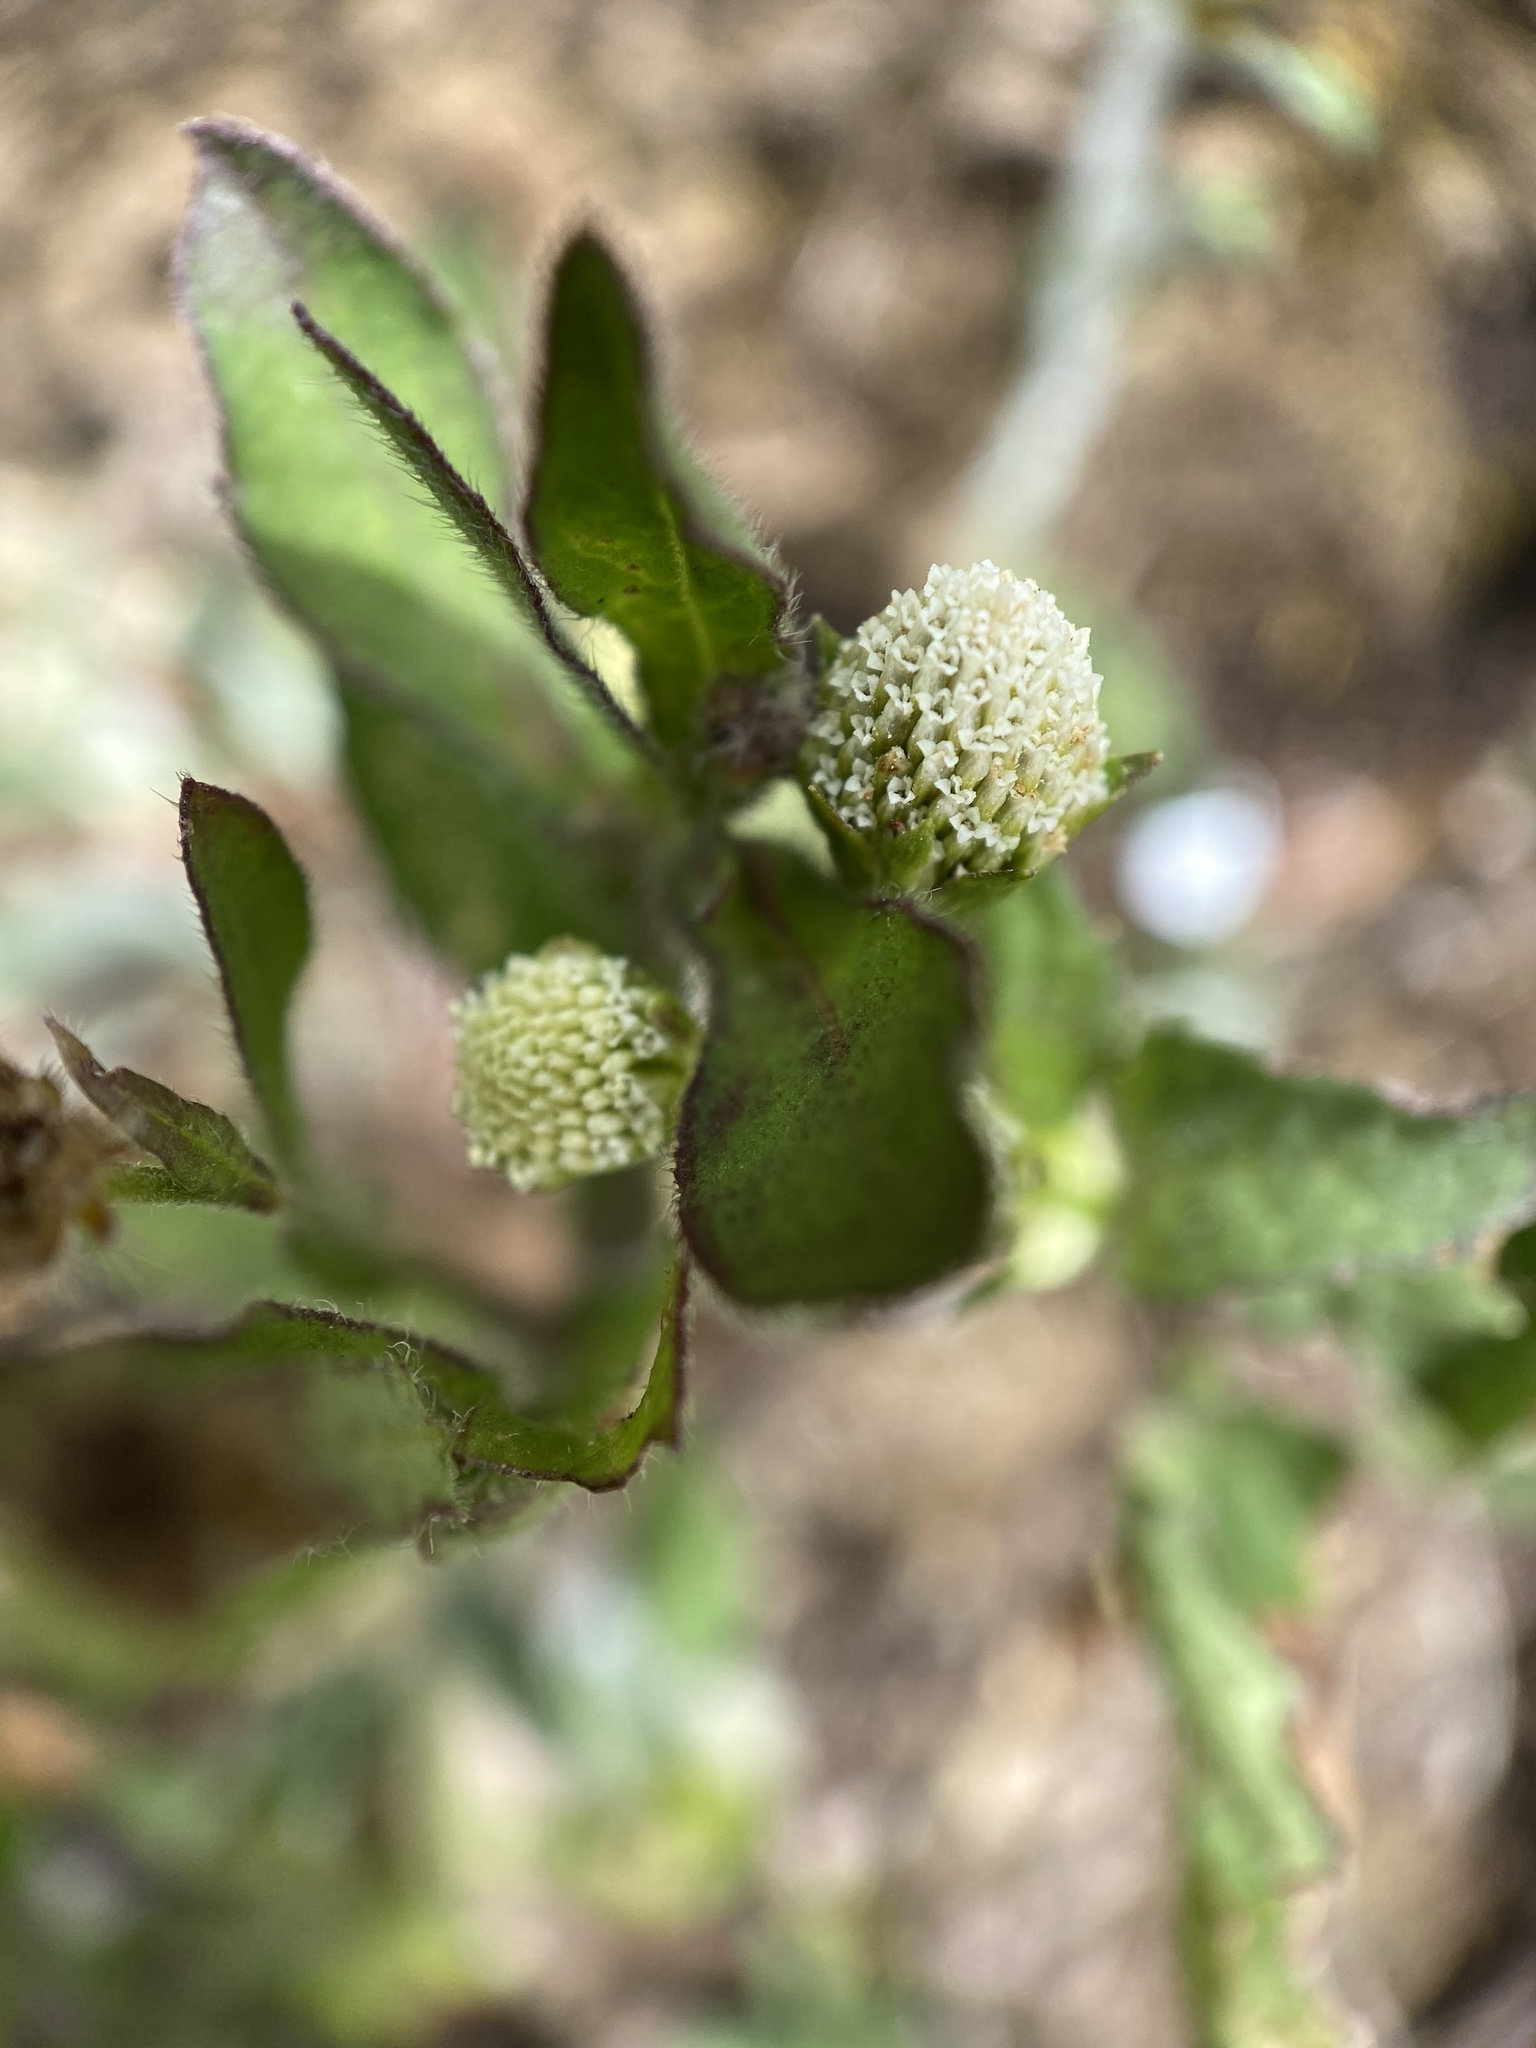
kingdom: Plantae
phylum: Tracheophyta
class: Magnoliopsida
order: Asterales
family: Asteraceae
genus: Eclipta
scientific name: Eclipta prostrata
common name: False daisy
